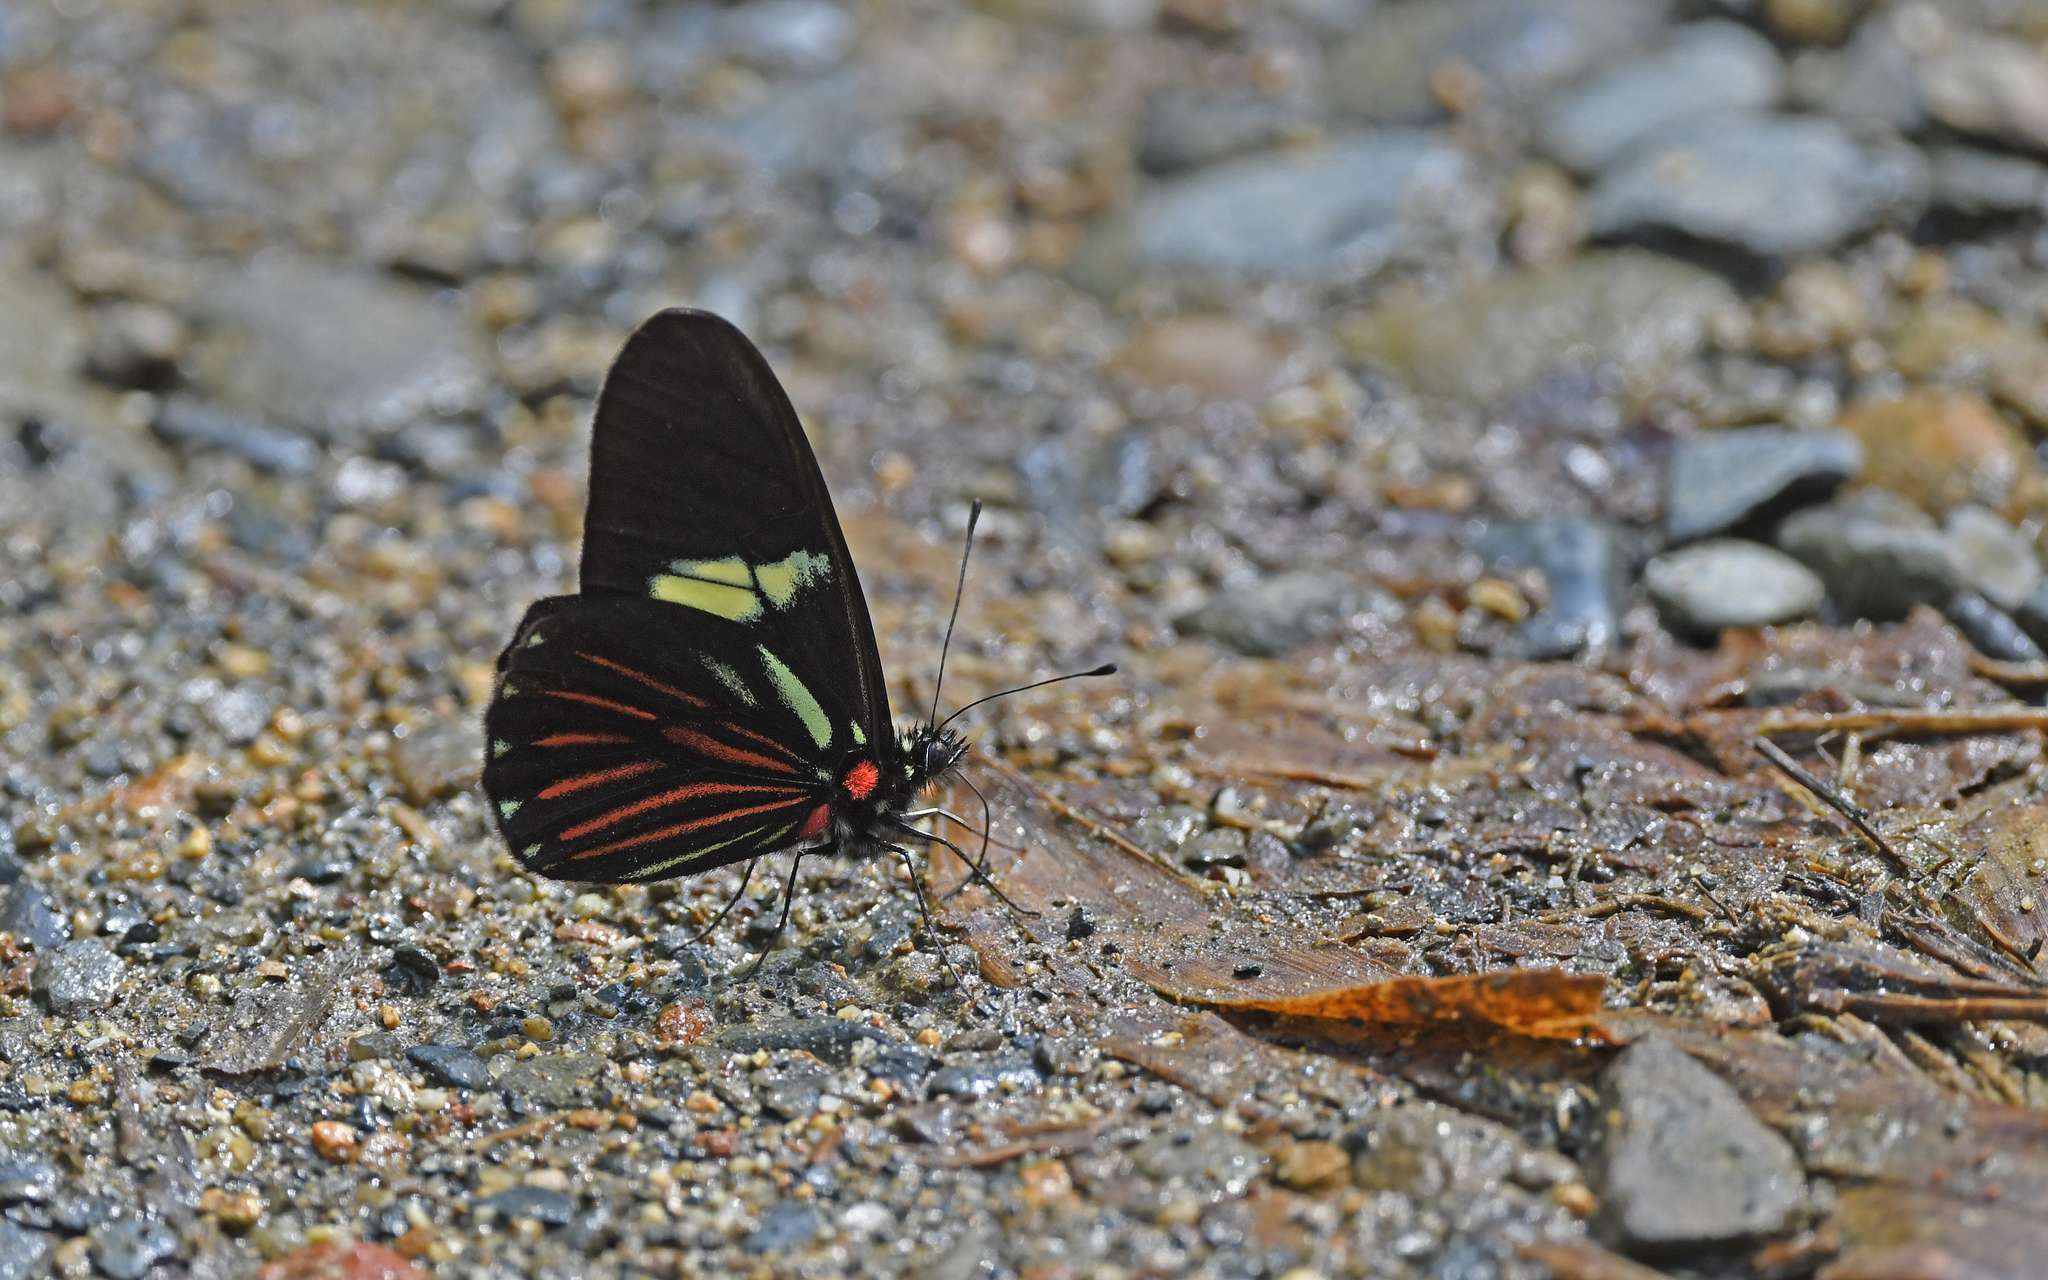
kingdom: Animalia
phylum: Arthropoda
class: Insecta
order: Lepidoptera
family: Pieridae
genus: Archonias
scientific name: Archonias brassolis
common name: Cattleheart white
